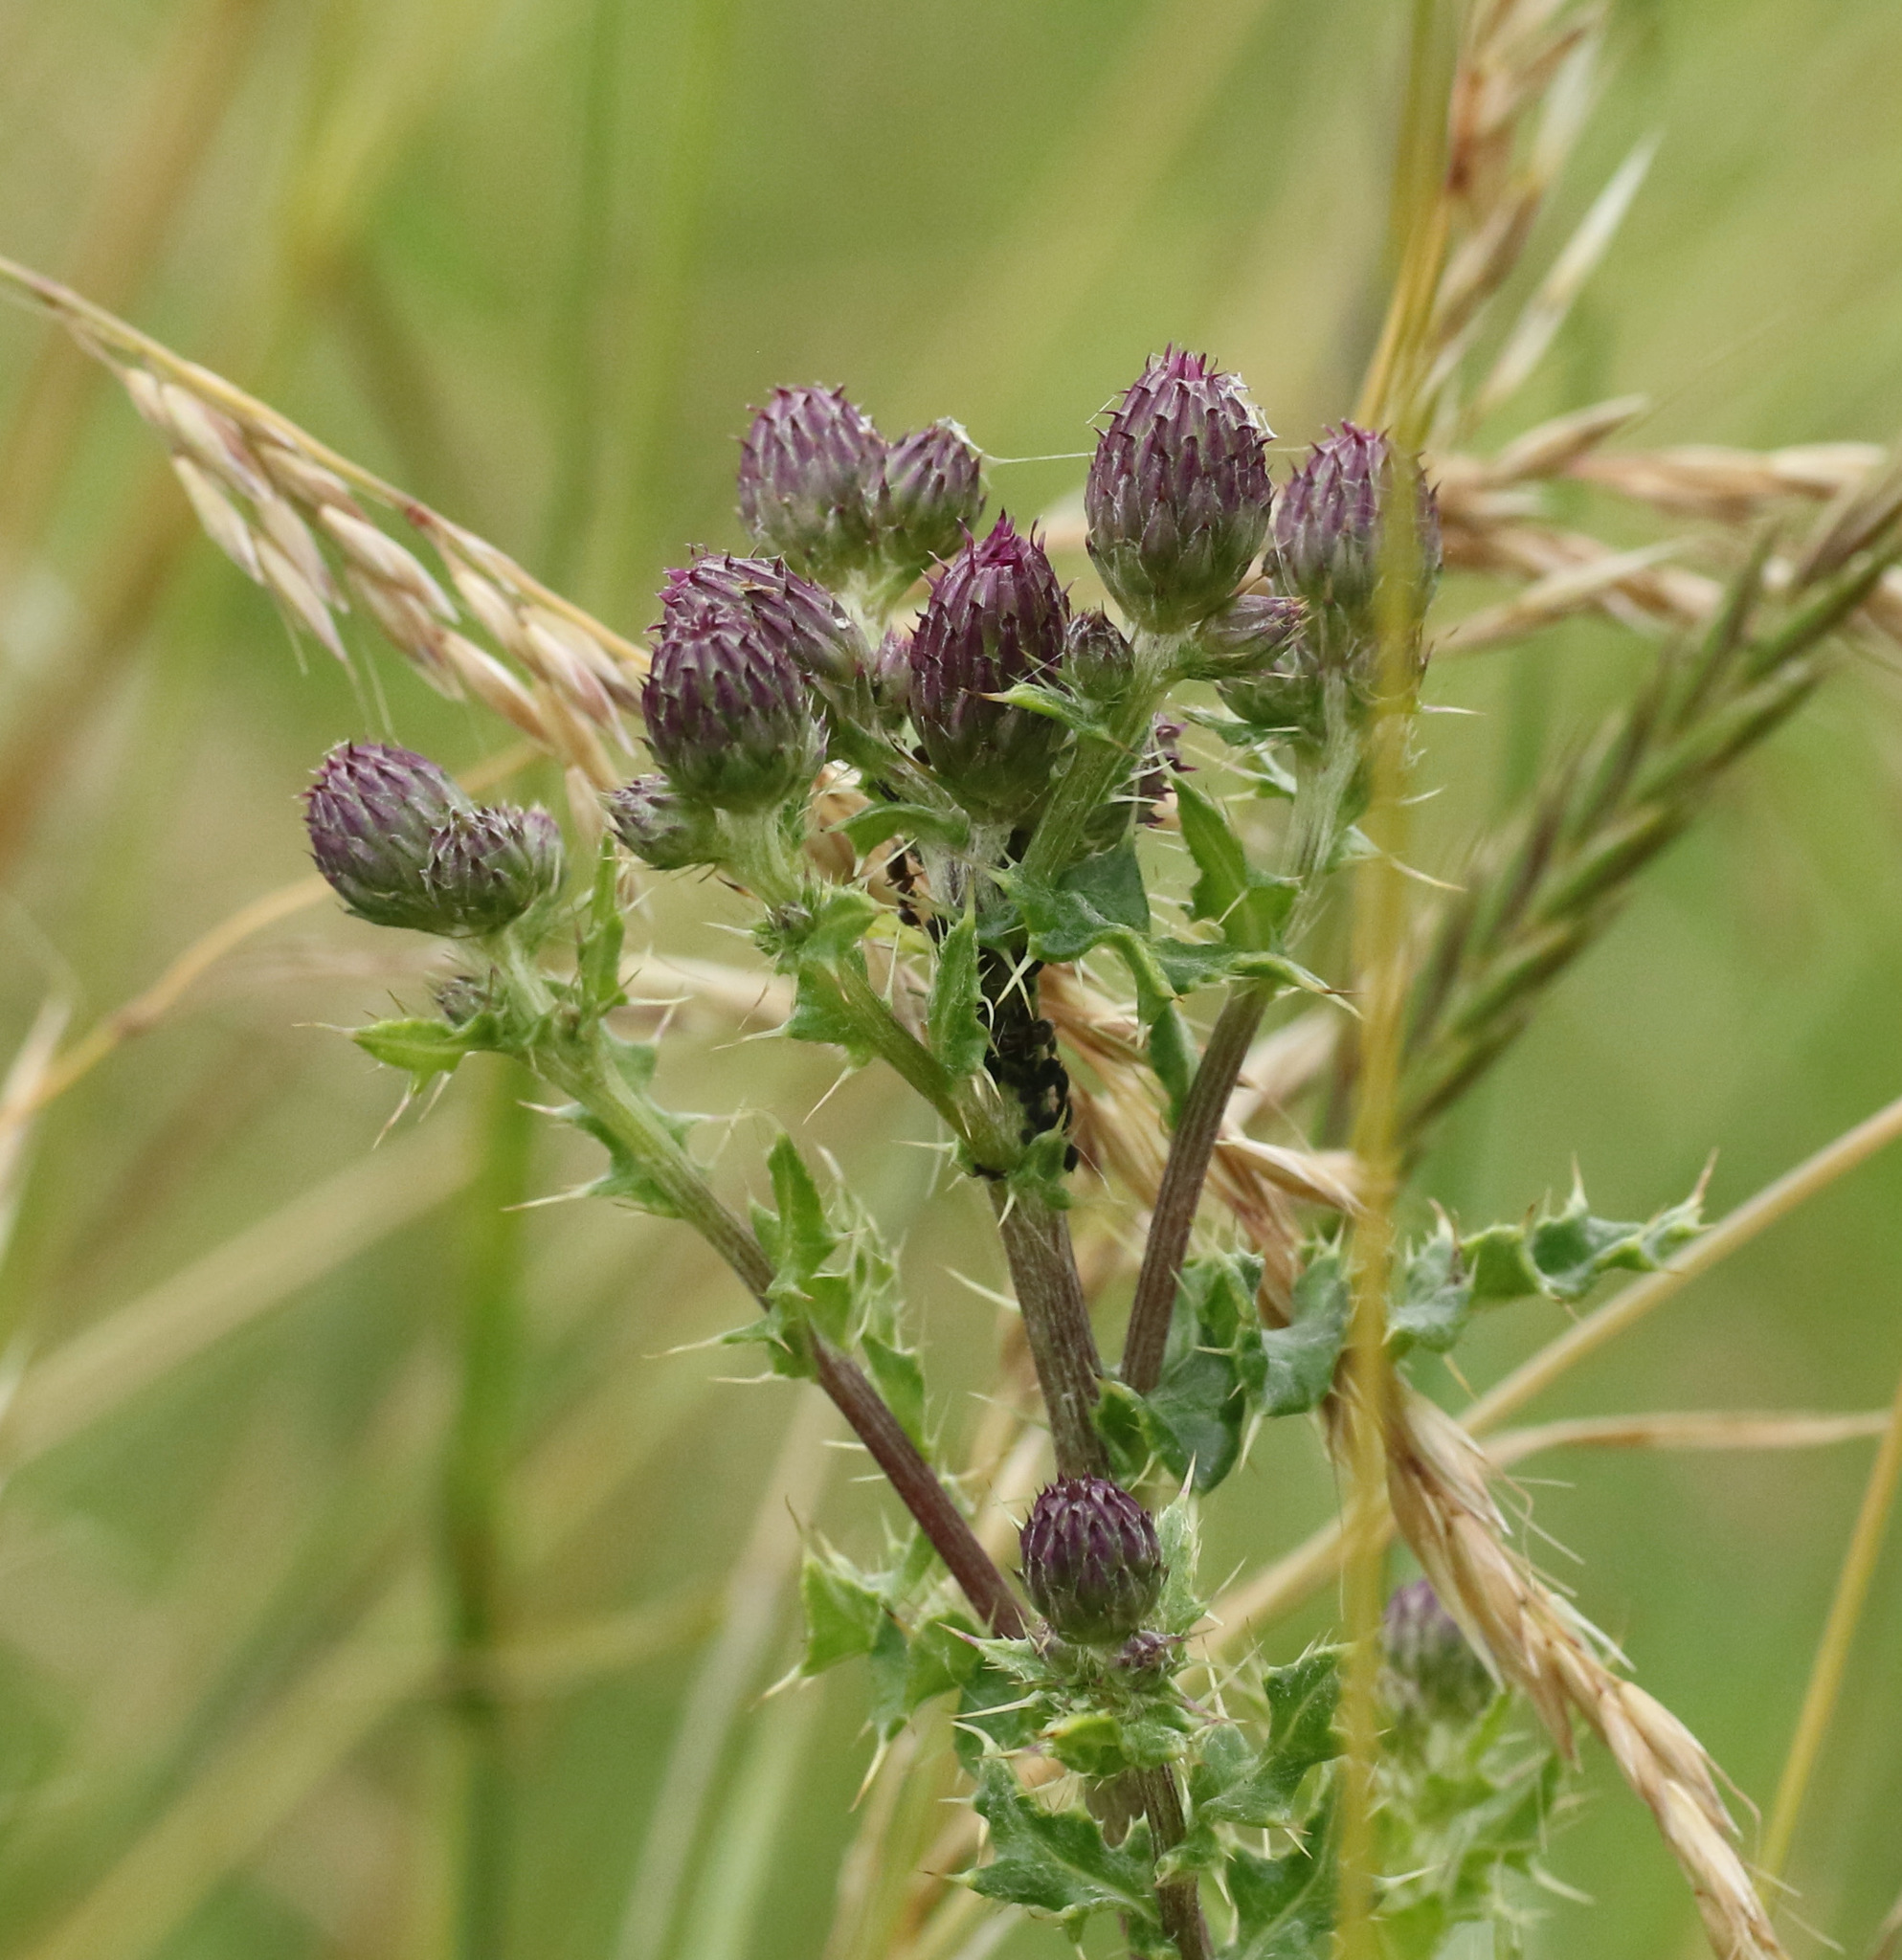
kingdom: Plantae
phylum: Tracheophyta
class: Magnoliopsida
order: Asterales
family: Asteraceae
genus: Cirsium
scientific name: Cirsium arvense
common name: Creeping thistle
